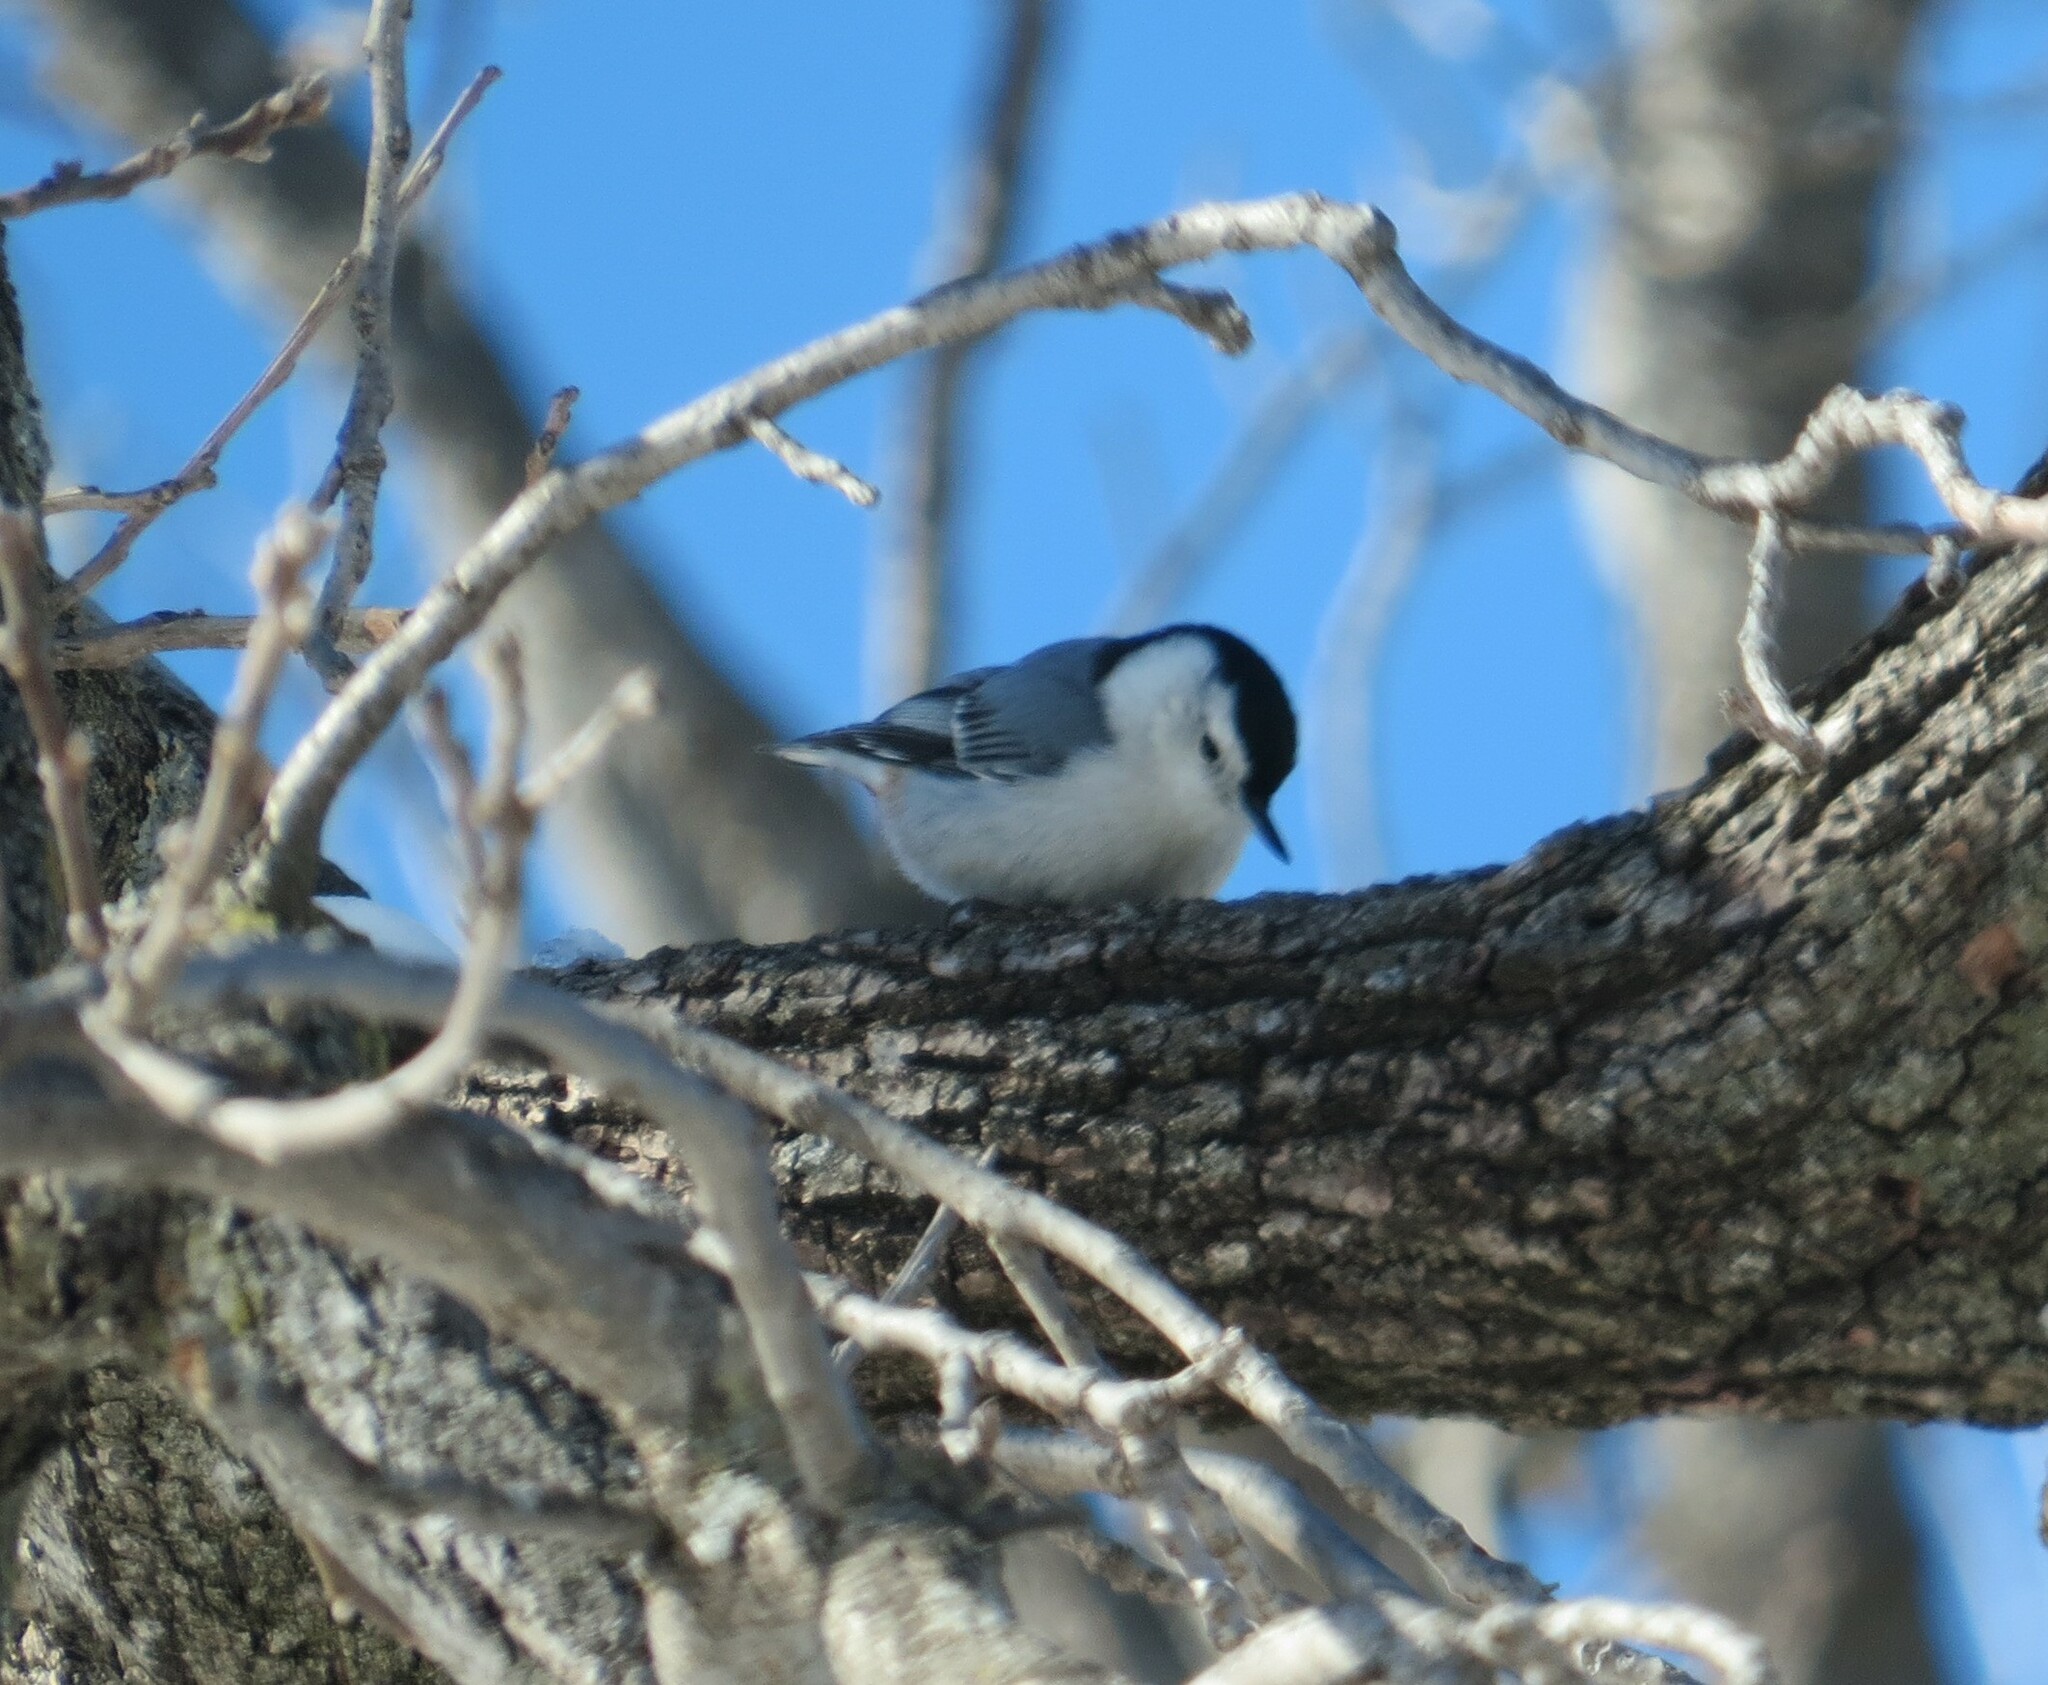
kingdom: Animalia
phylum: Chordata
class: Aves
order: Passeriformes
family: Sittidae
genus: Sitta
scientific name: Sitta carolinensis
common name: White-breasted nuthatch
